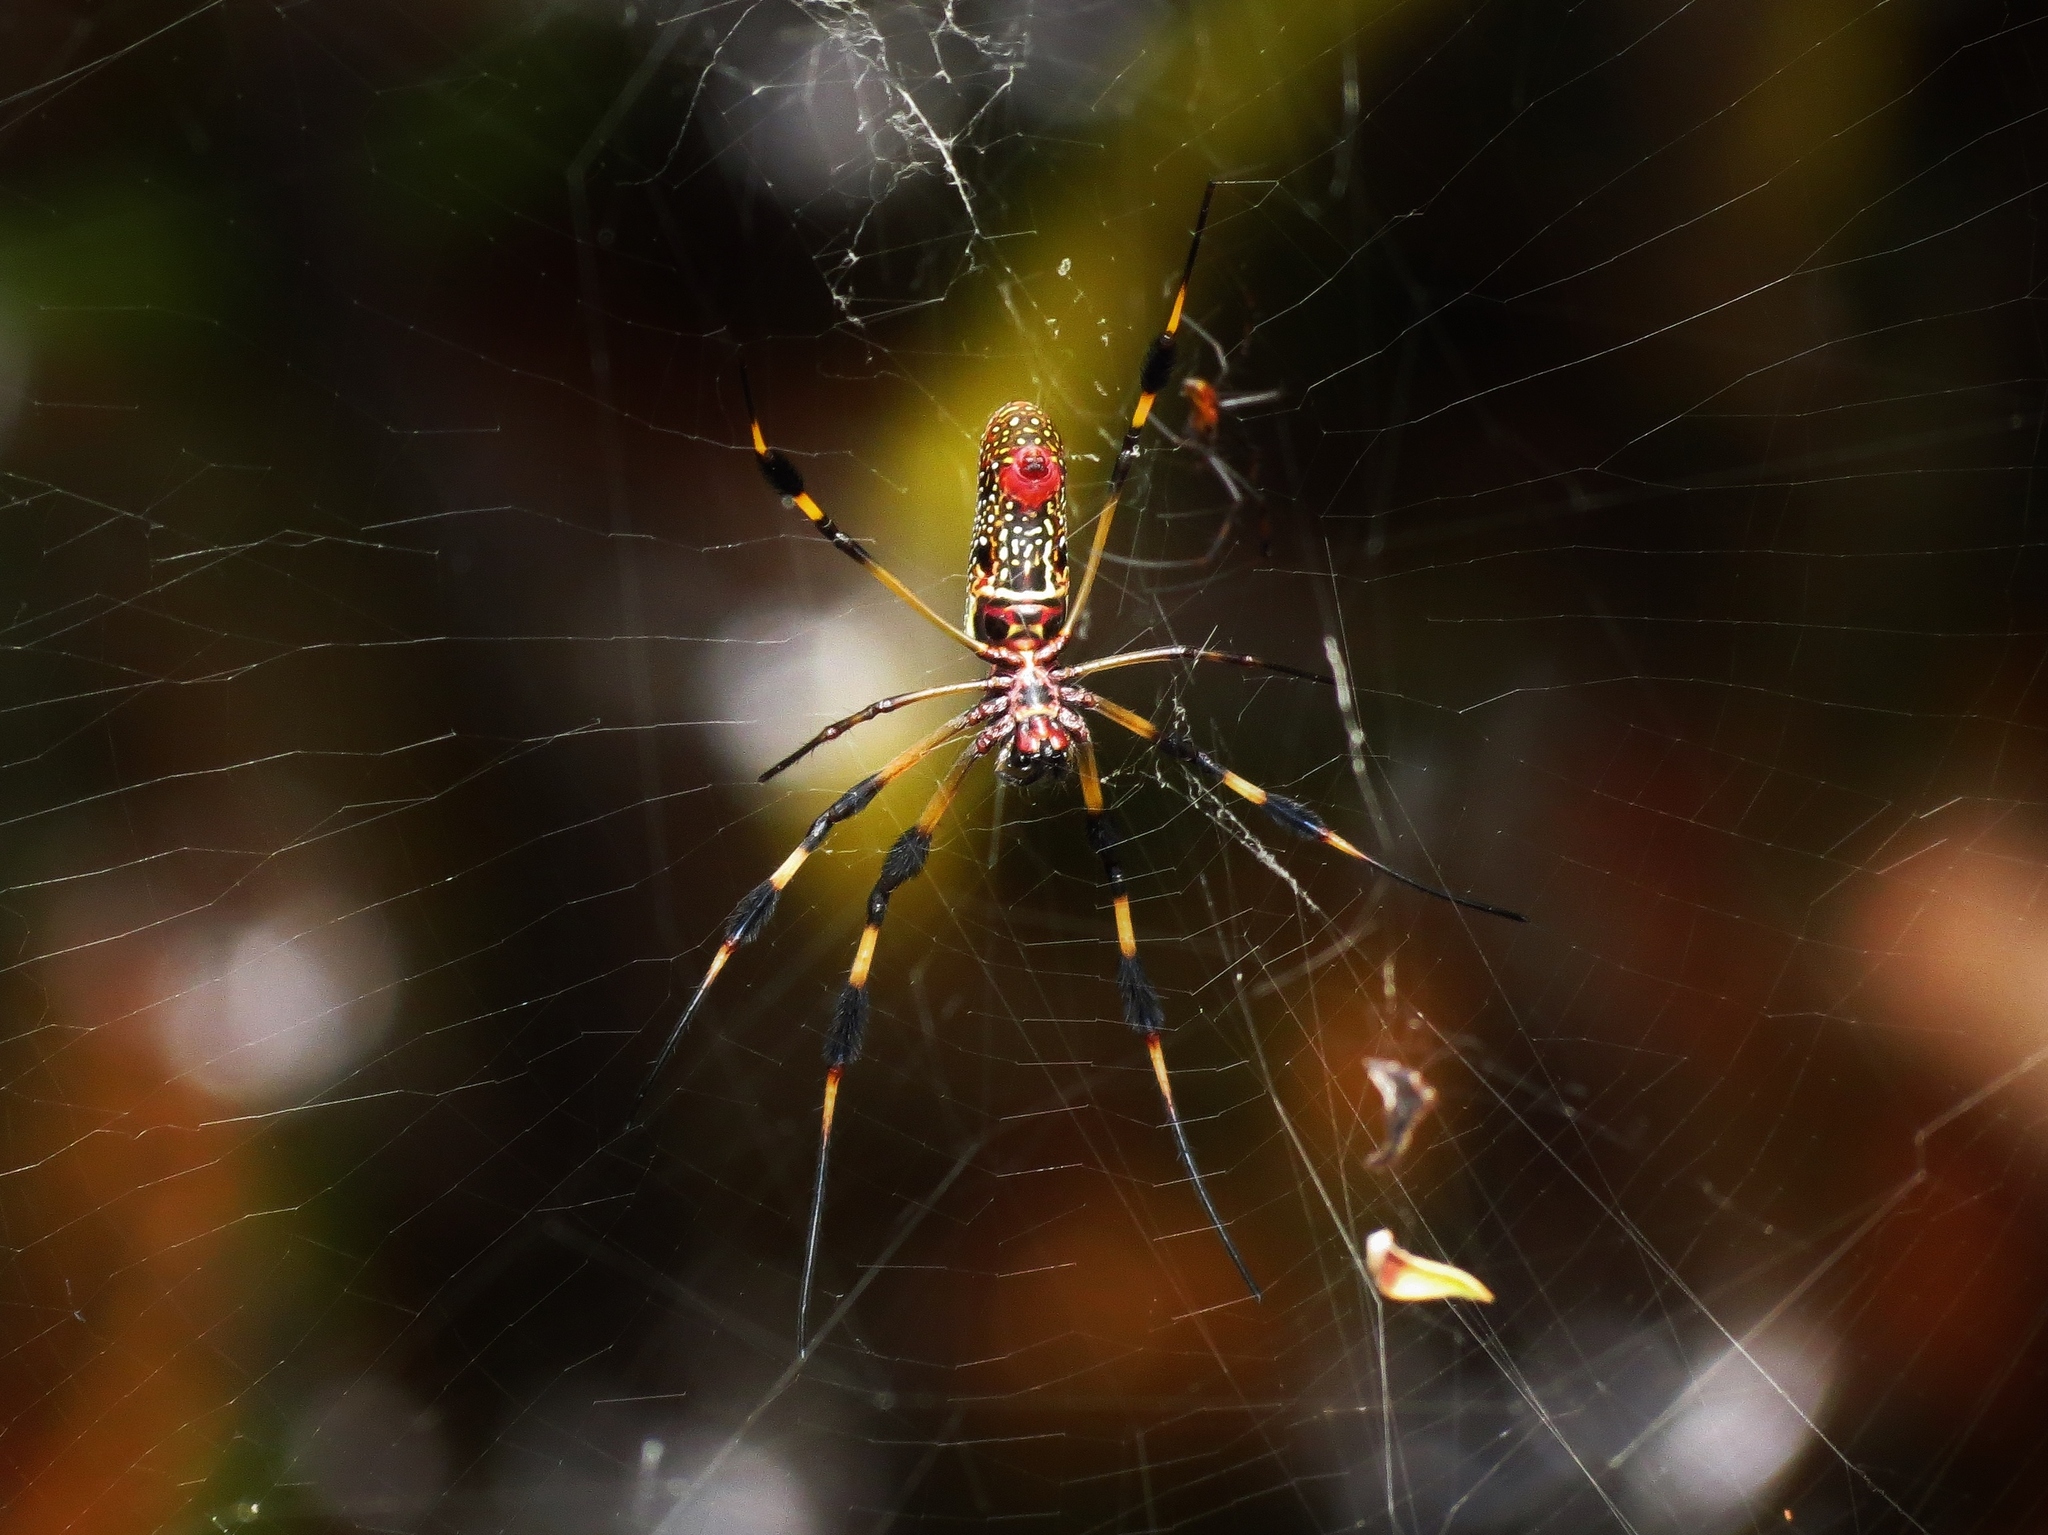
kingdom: Animalia
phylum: Arthropoda
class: Arachnida
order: Araneae
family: Araneidae
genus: Trichonephila
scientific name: Trichonephila clavipes
